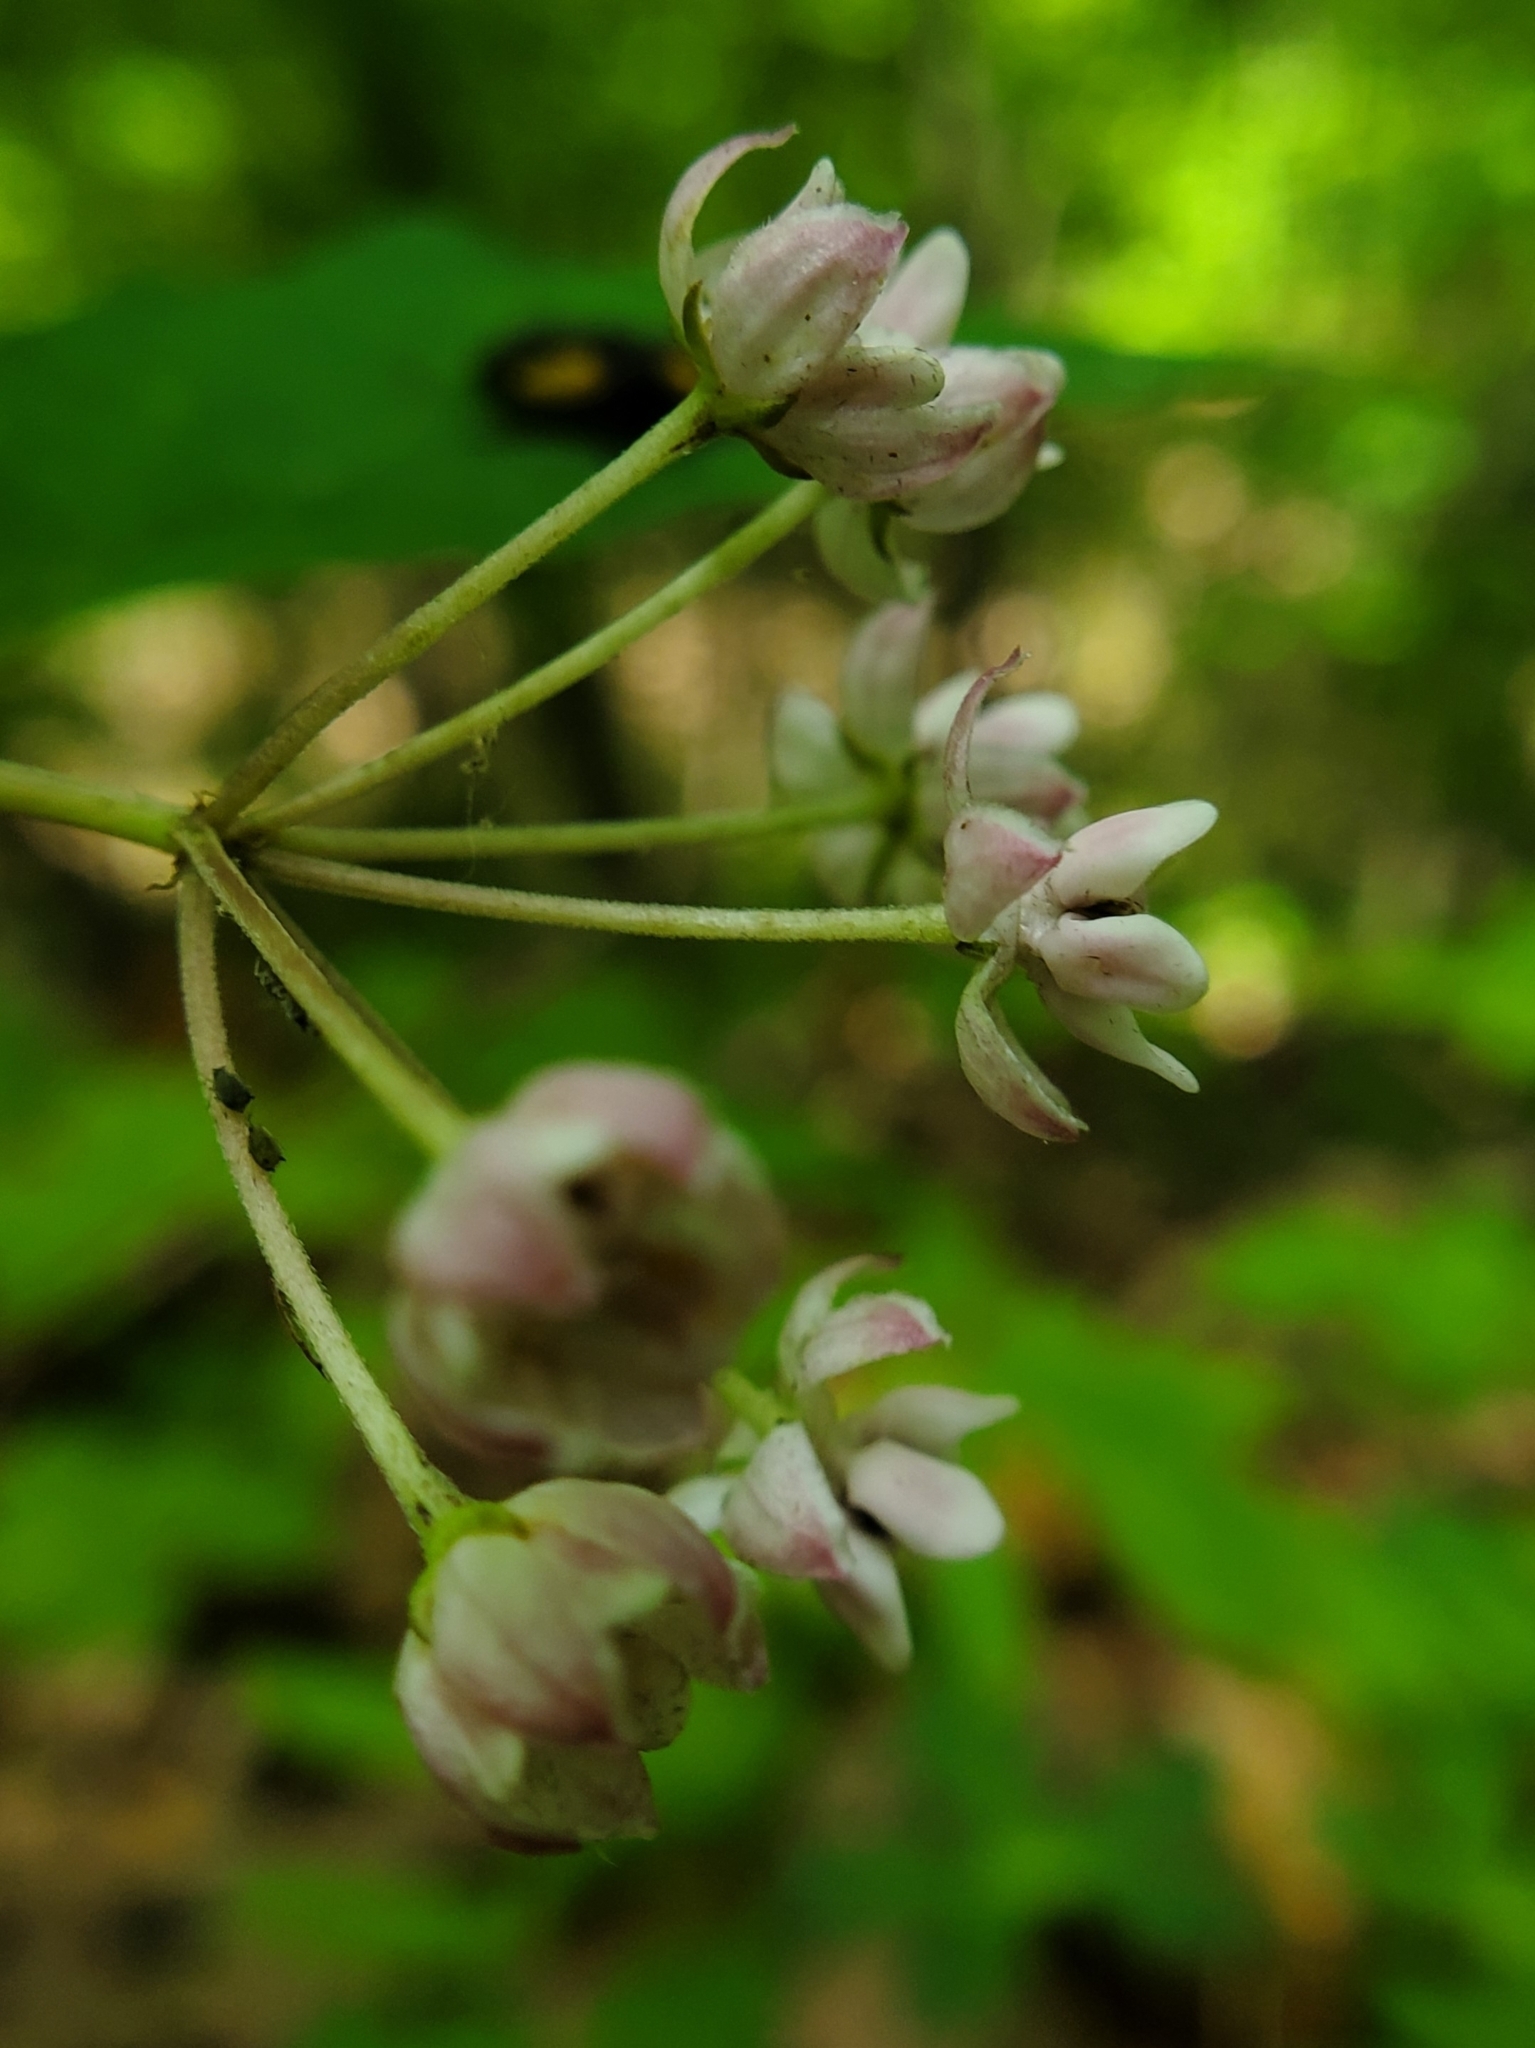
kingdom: Animalia
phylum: Arthropoda
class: Insecta
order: Lepidoptera
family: Adelidae
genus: Adela
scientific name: Adela caeruleella
